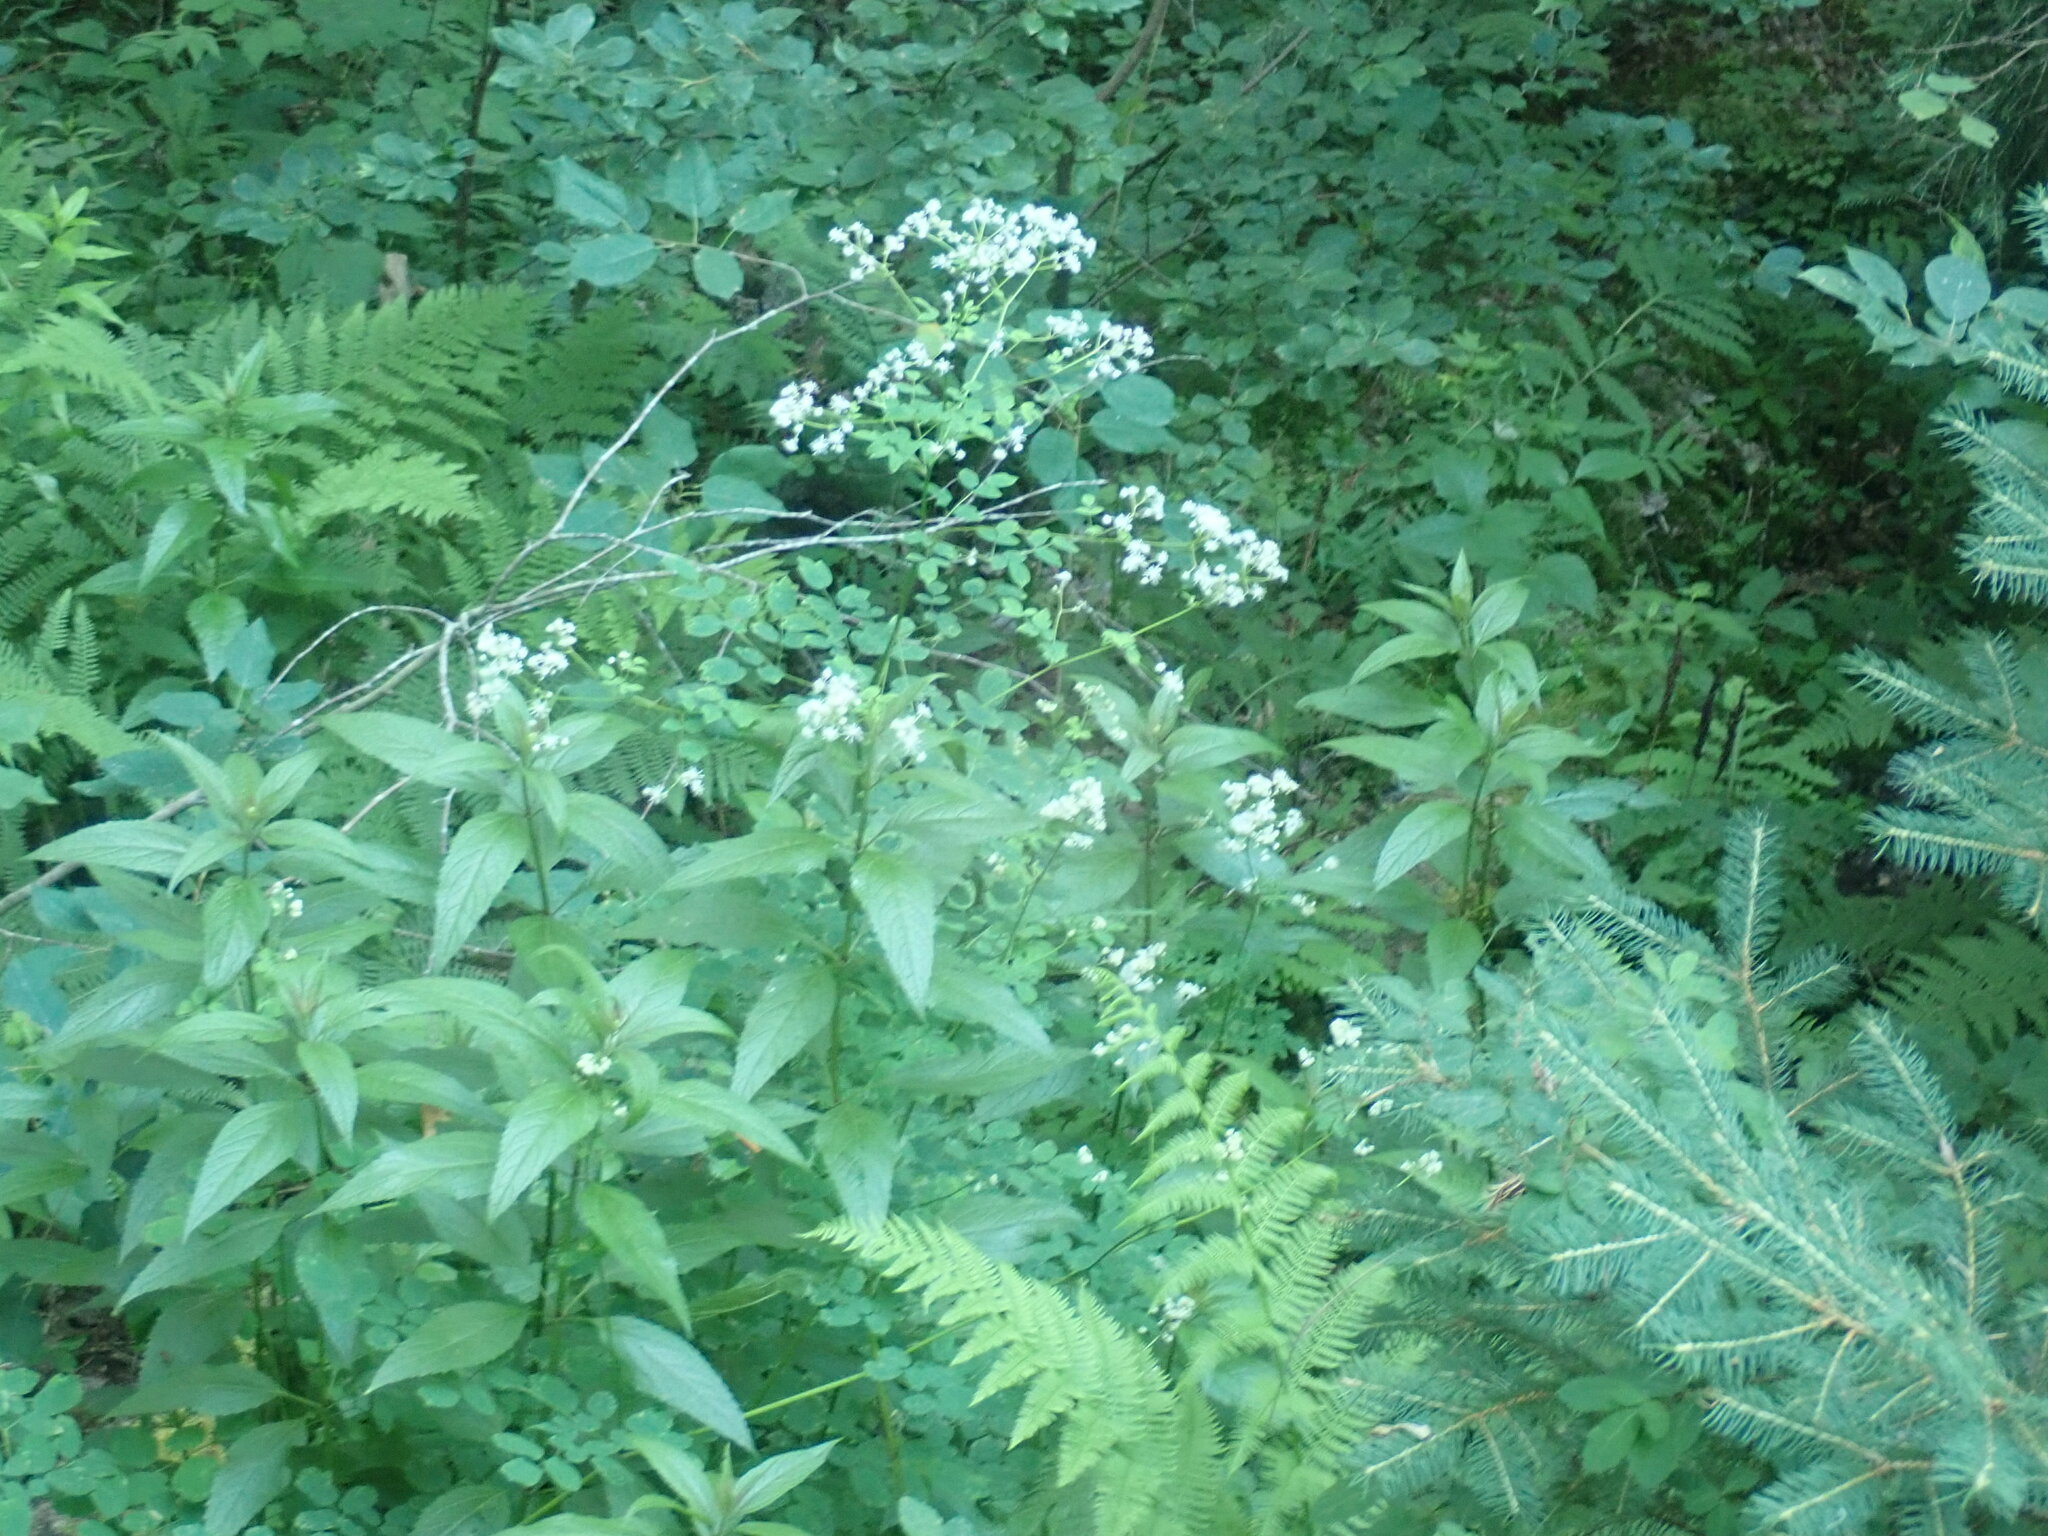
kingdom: Plantae
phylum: Tracheophyta
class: Magnoliopsida
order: Ranunculales
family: Ranunculaceae
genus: Thalictrum
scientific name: Thalictrum pubescens
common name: King-of-the-meadow
